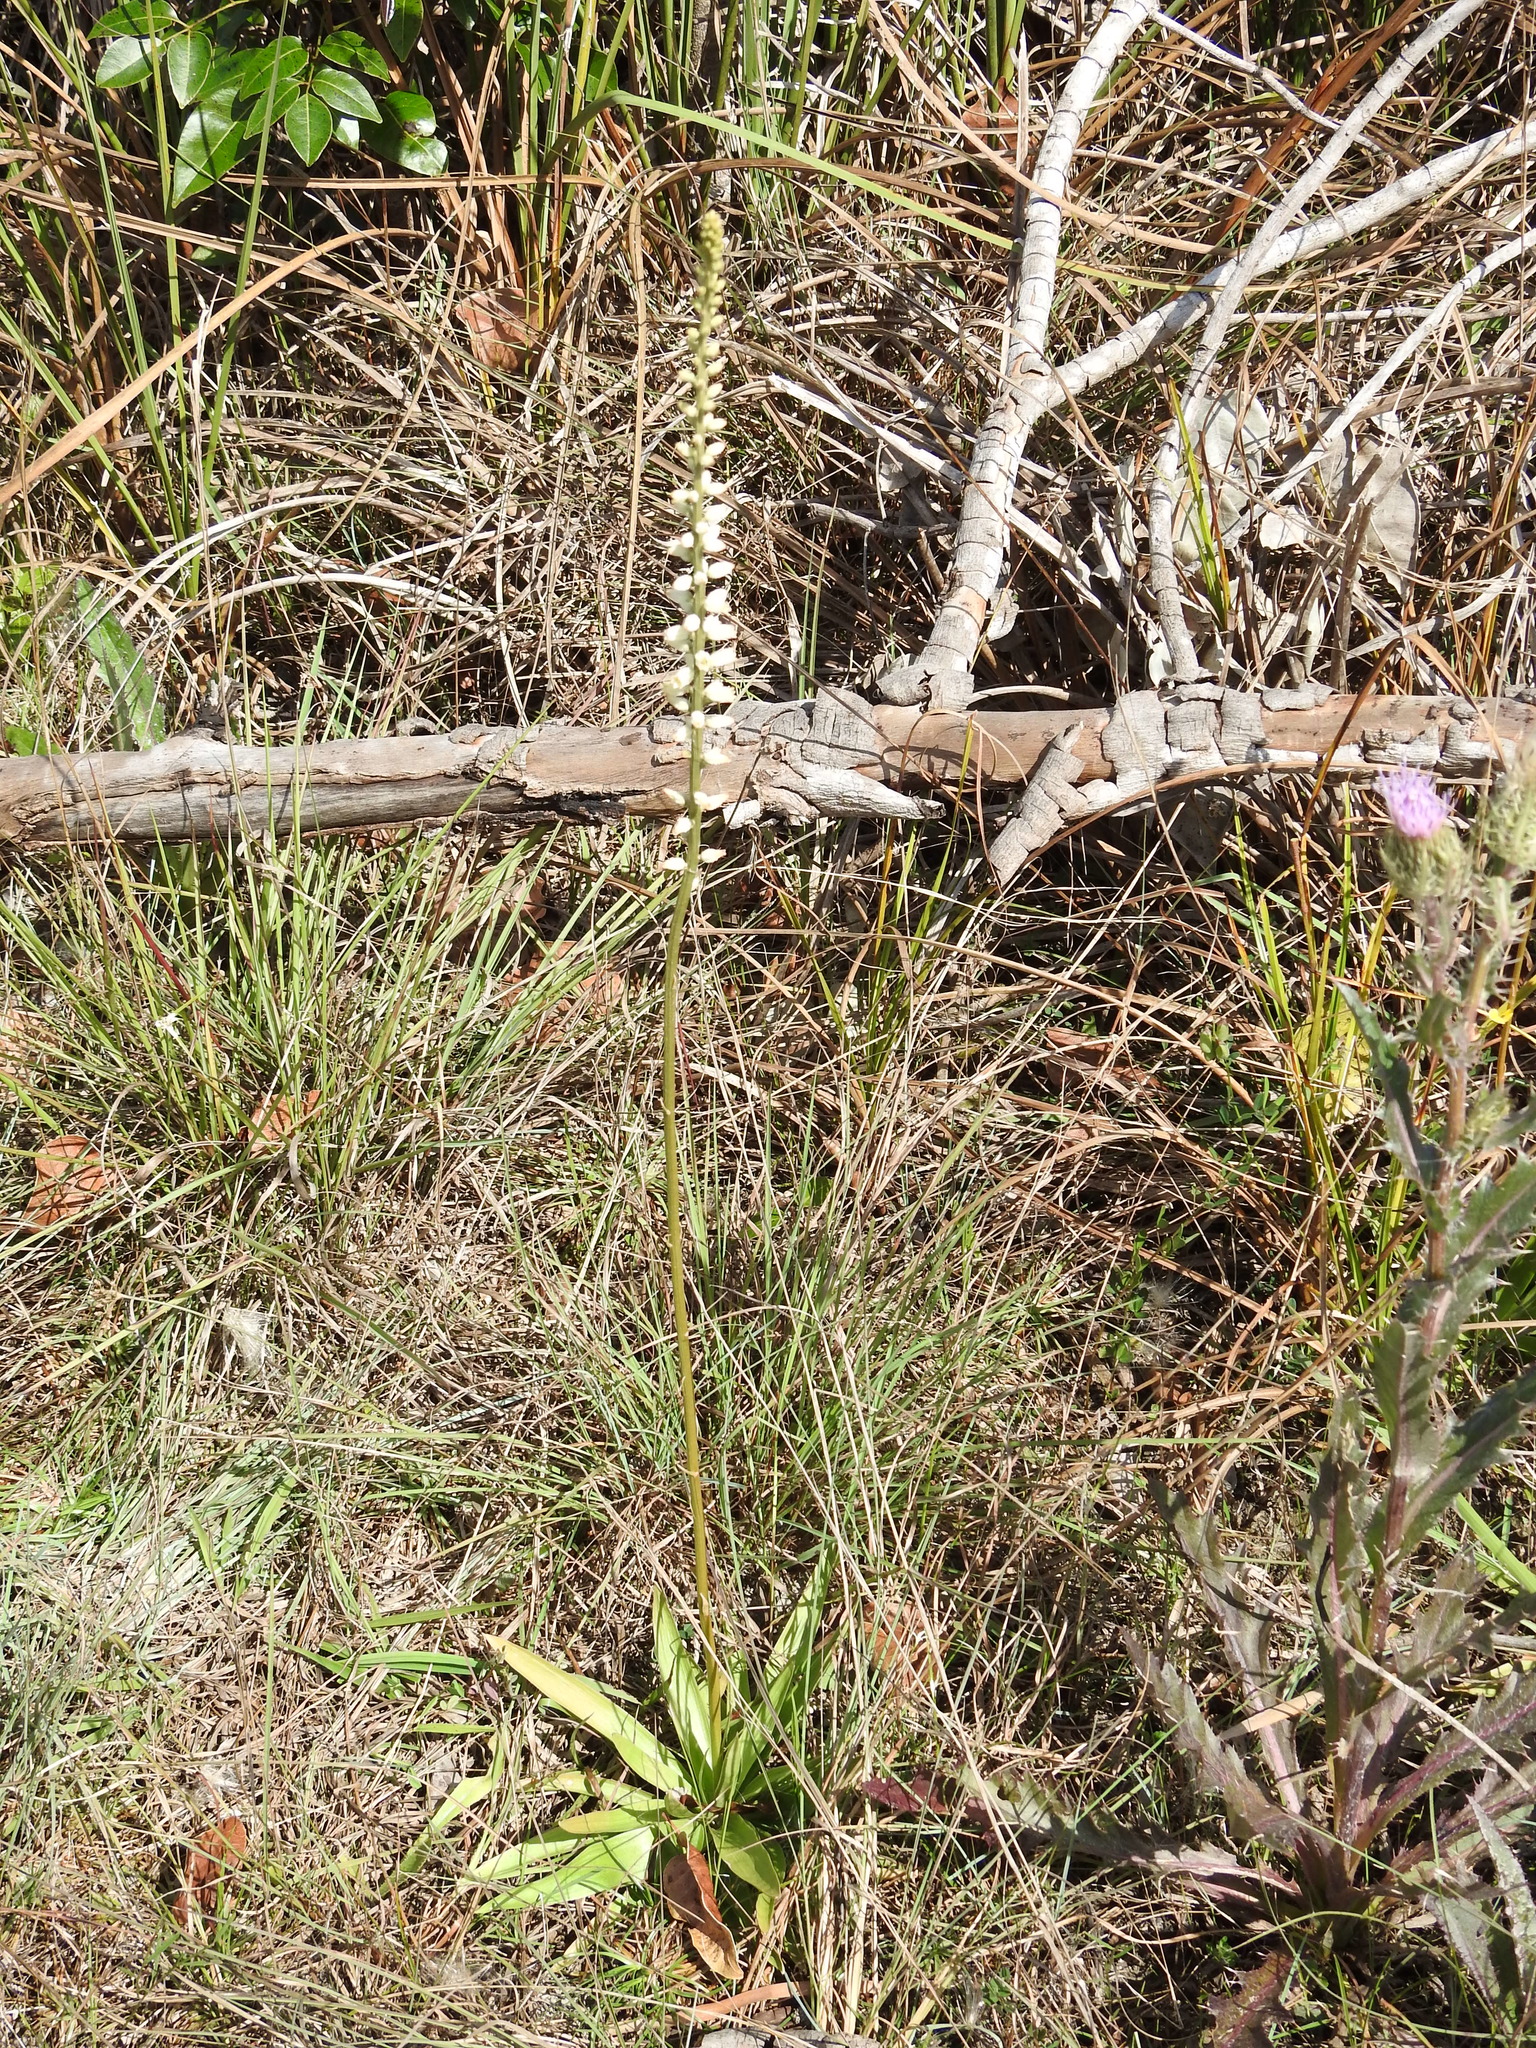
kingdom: Plantae
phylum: Tracheophyta
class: Liliopsida
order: Dioscoreales
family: Nartheciaceae
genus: Aletris
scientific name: Aletris bracteata
